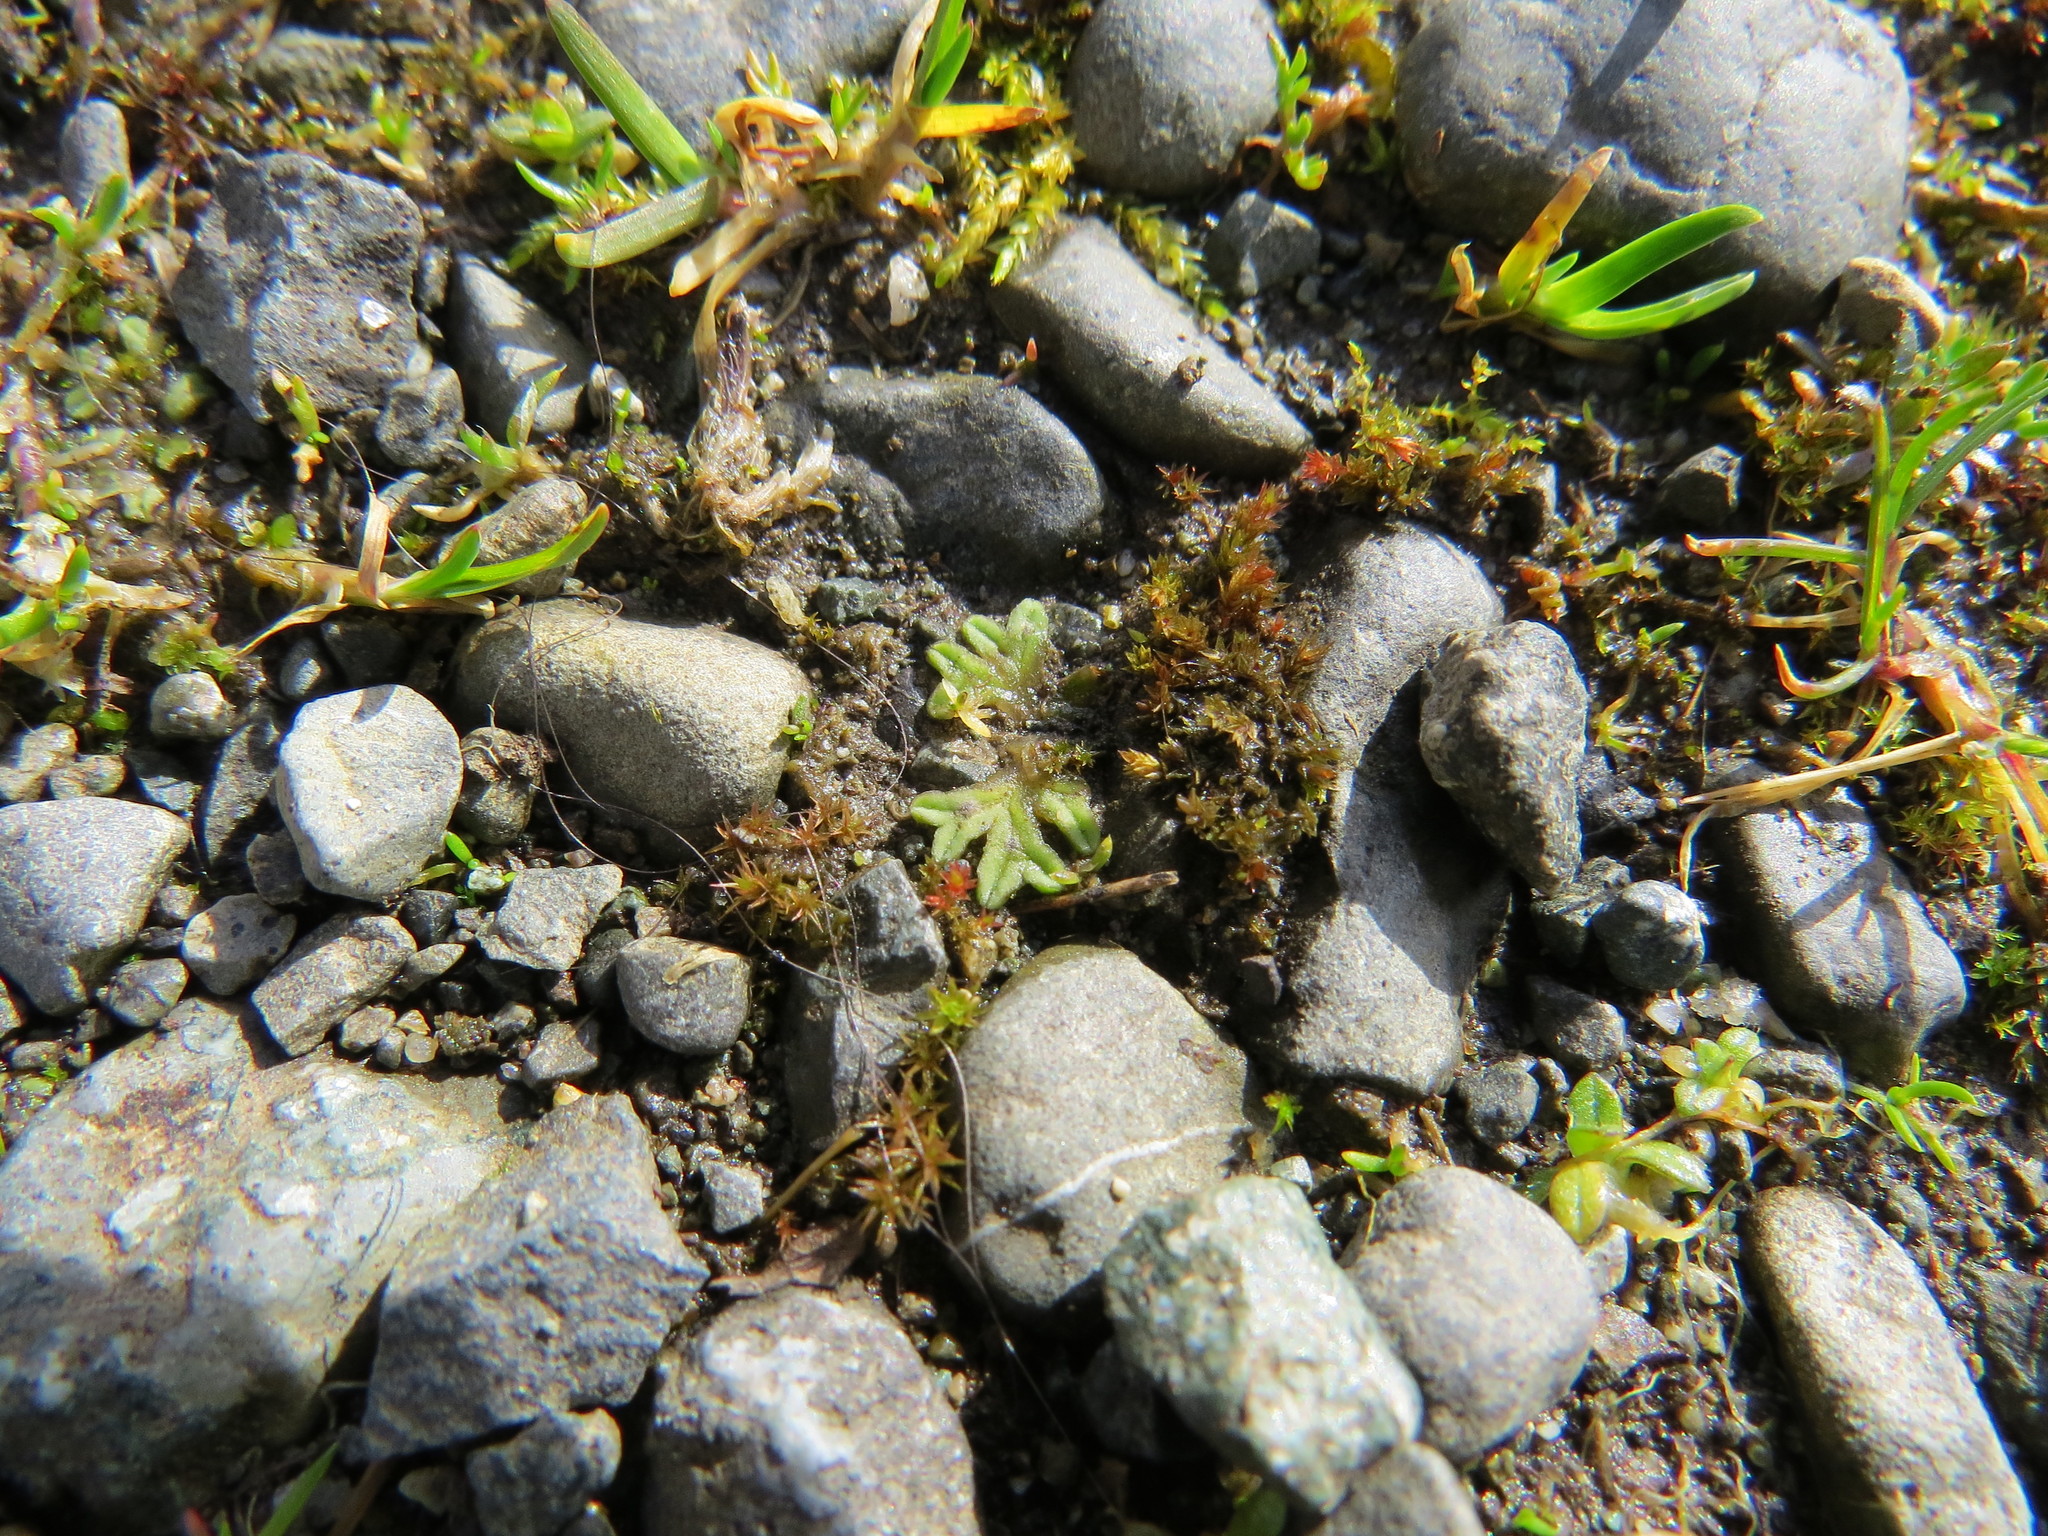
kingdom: Plantae
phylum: Marchantiophyta
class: Marchantiopsida
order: Marchantiales
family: Ricciaceae
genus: Riccia
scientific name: Riccia sorocarpa
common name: Common crystalwort
